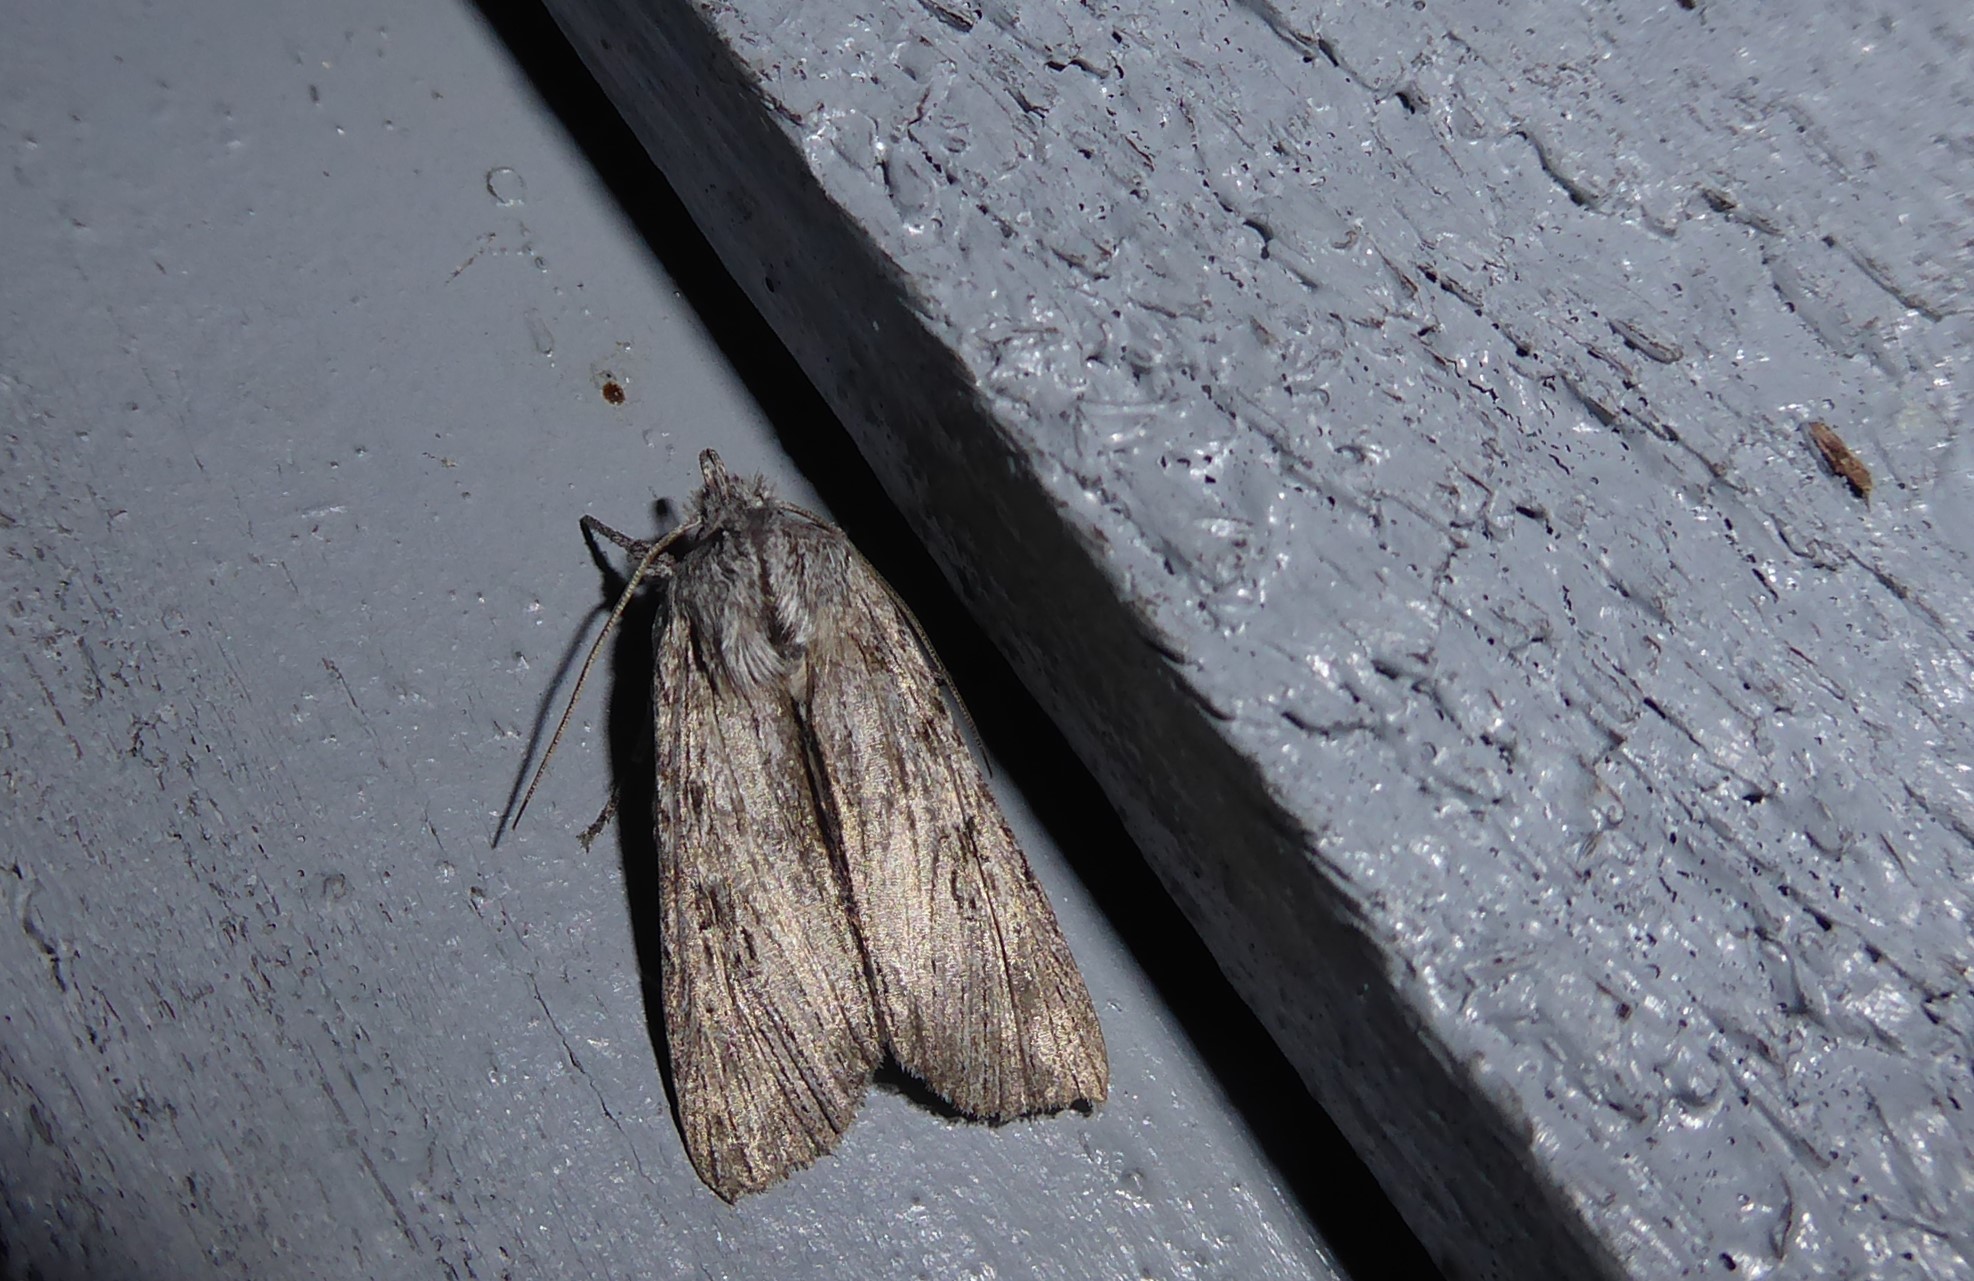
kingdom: Animalia
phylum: Arthropoda
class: Insecta
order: Lepidoptera
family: Noctuidae
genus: Physetica
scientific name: Physetica phricias
